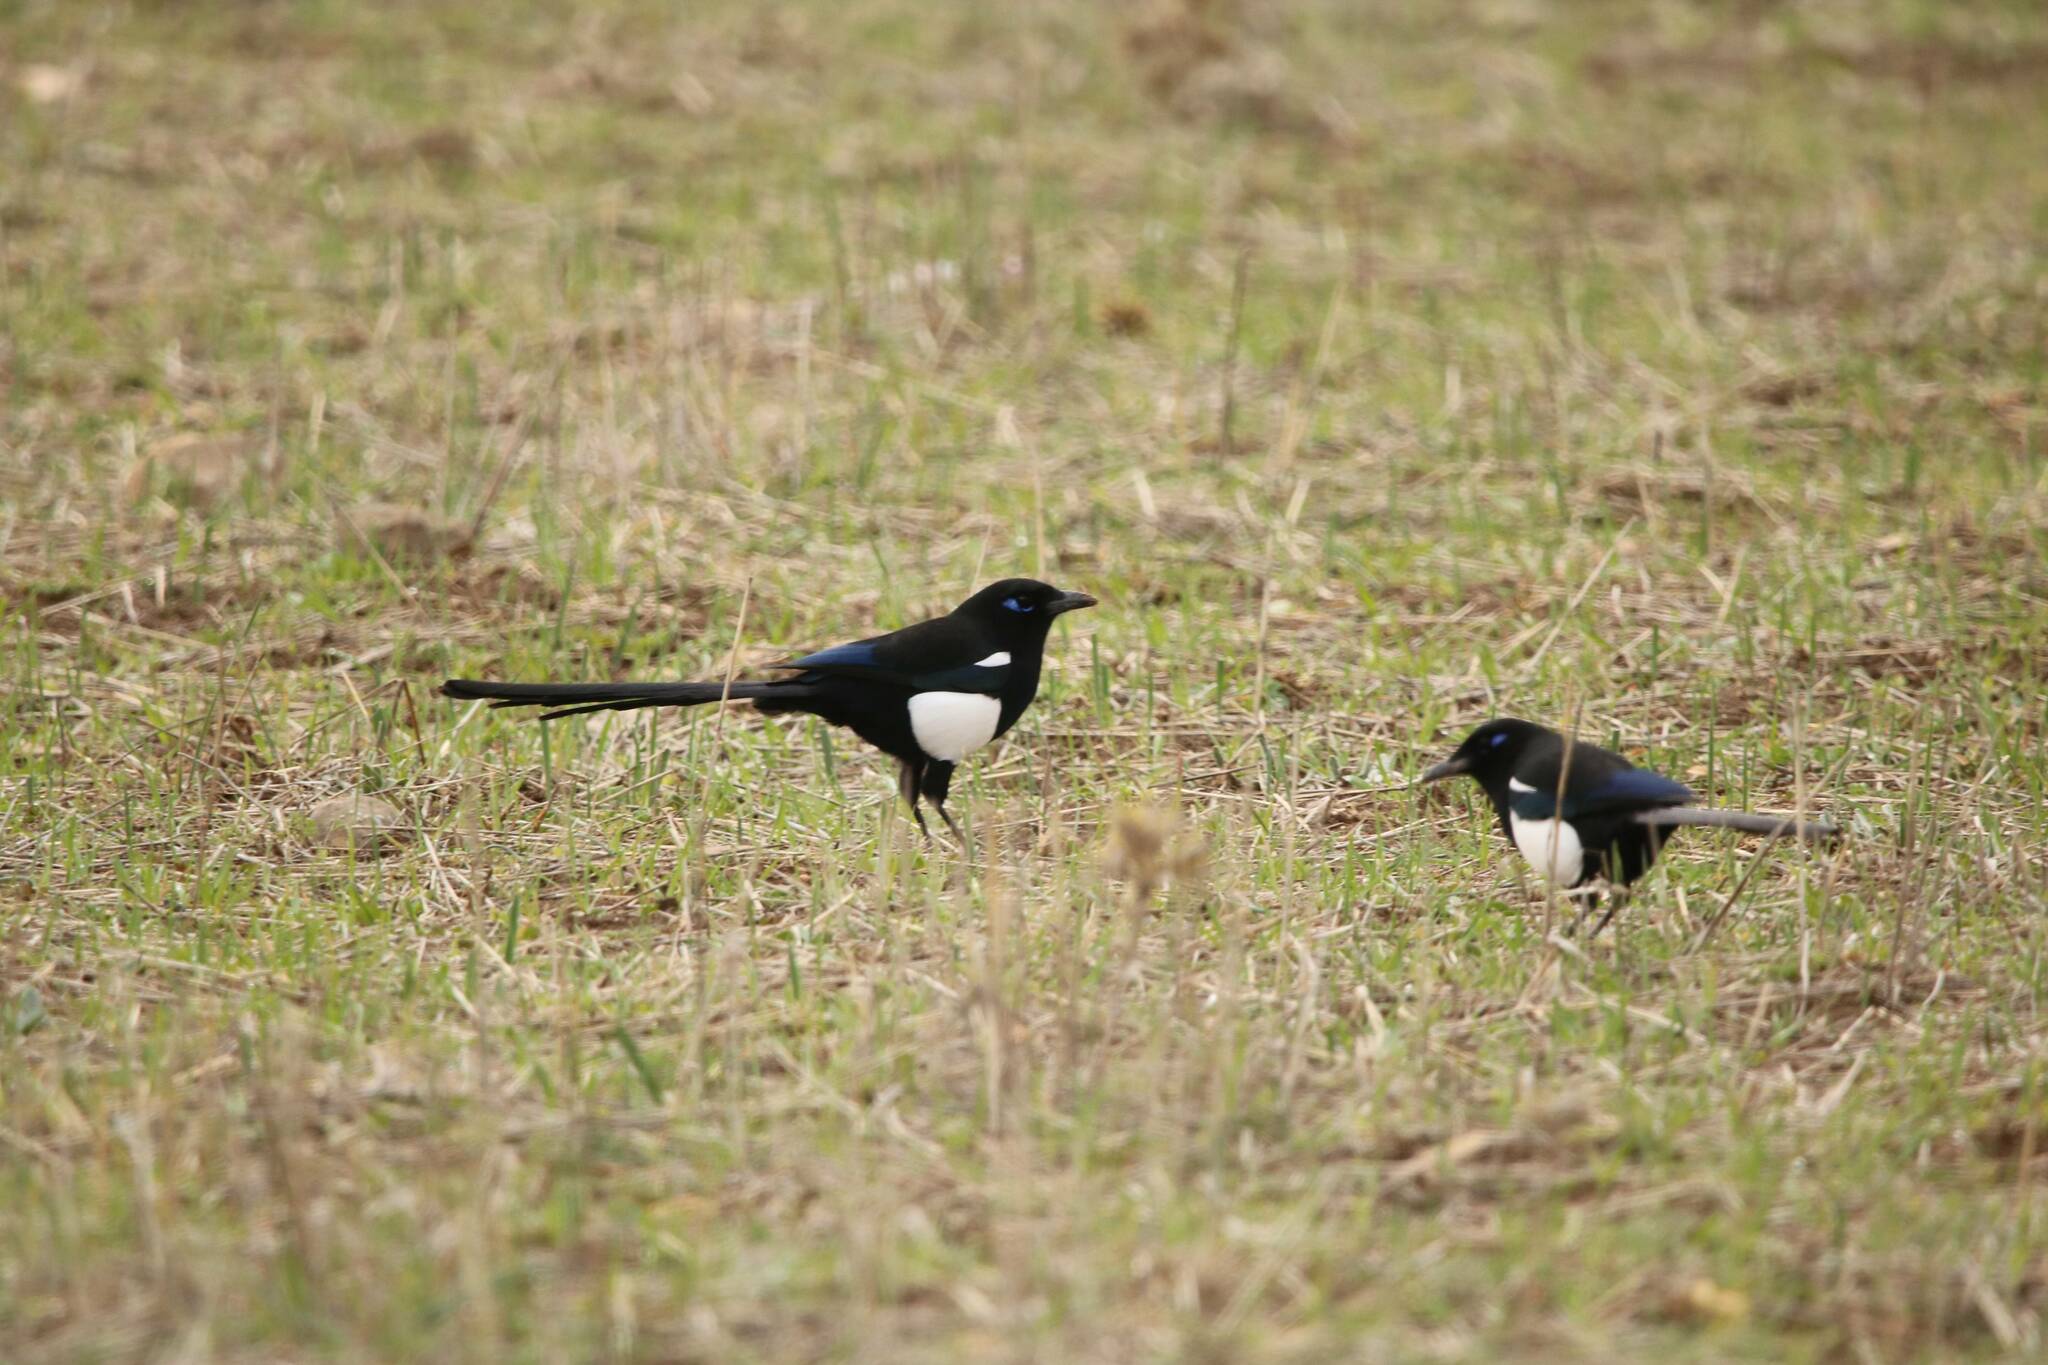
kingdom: Animalia
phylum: Chordata
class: Aves
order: Passeriformes
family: Corvidae
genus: Pica
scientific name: Pica mauritanica
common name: Maghreb magpie
